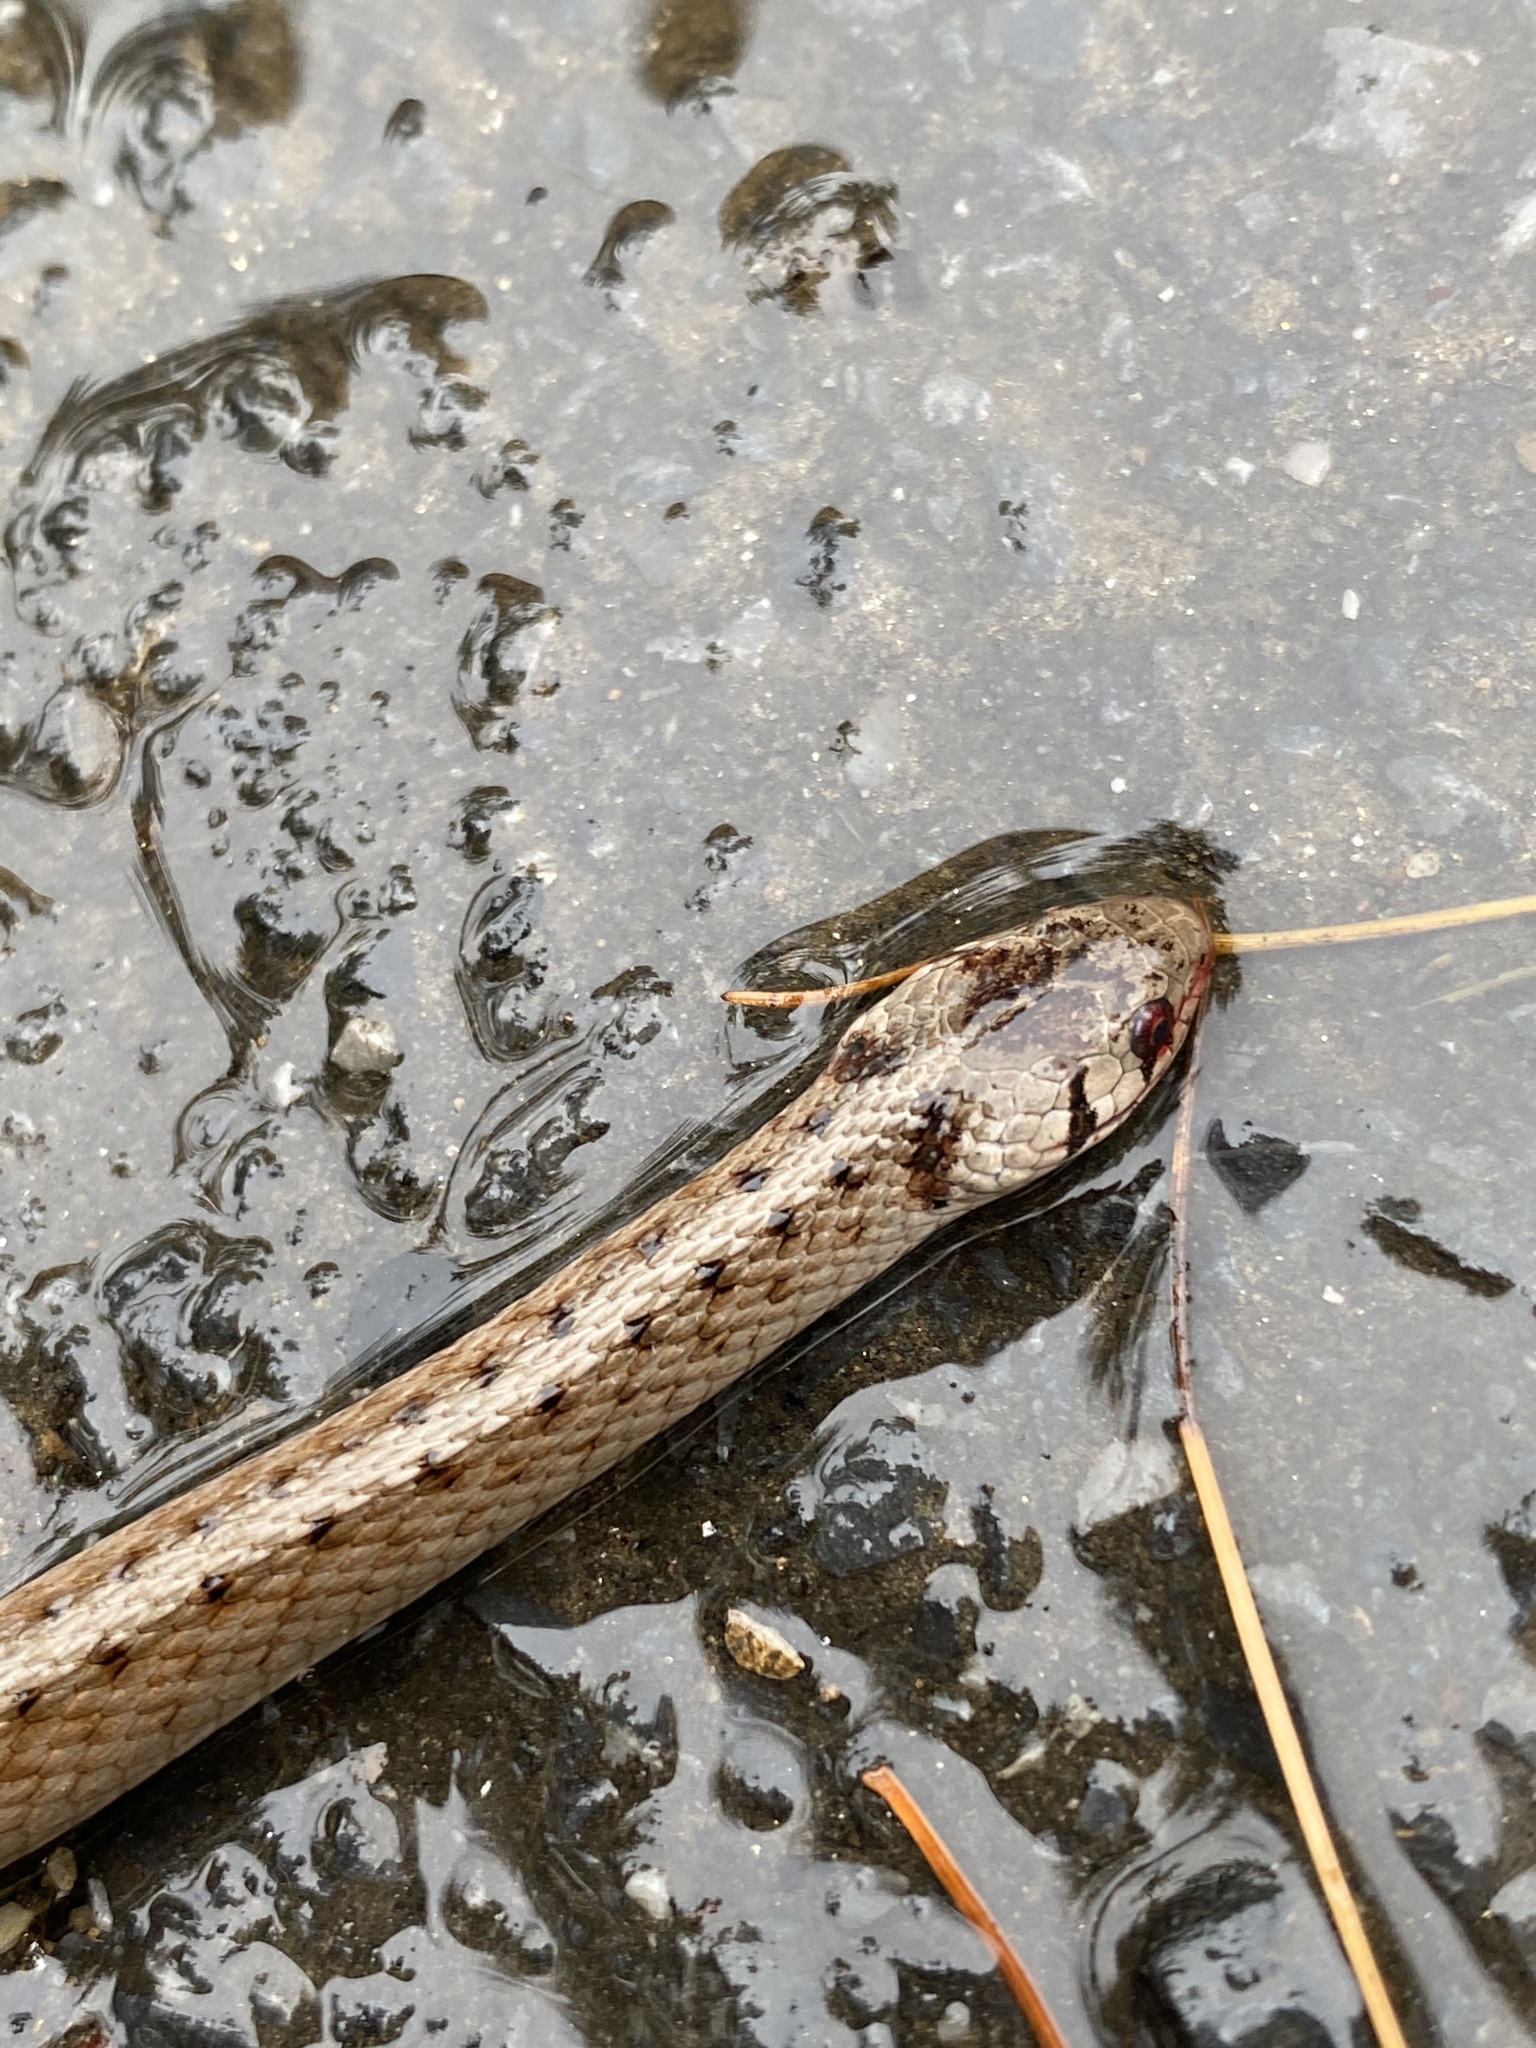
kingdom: Animalia
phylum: Chordata
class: Squamata
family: Colubridae
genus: Storeria
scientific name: Storeria dekayi
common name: (dekay’s) brown snake
